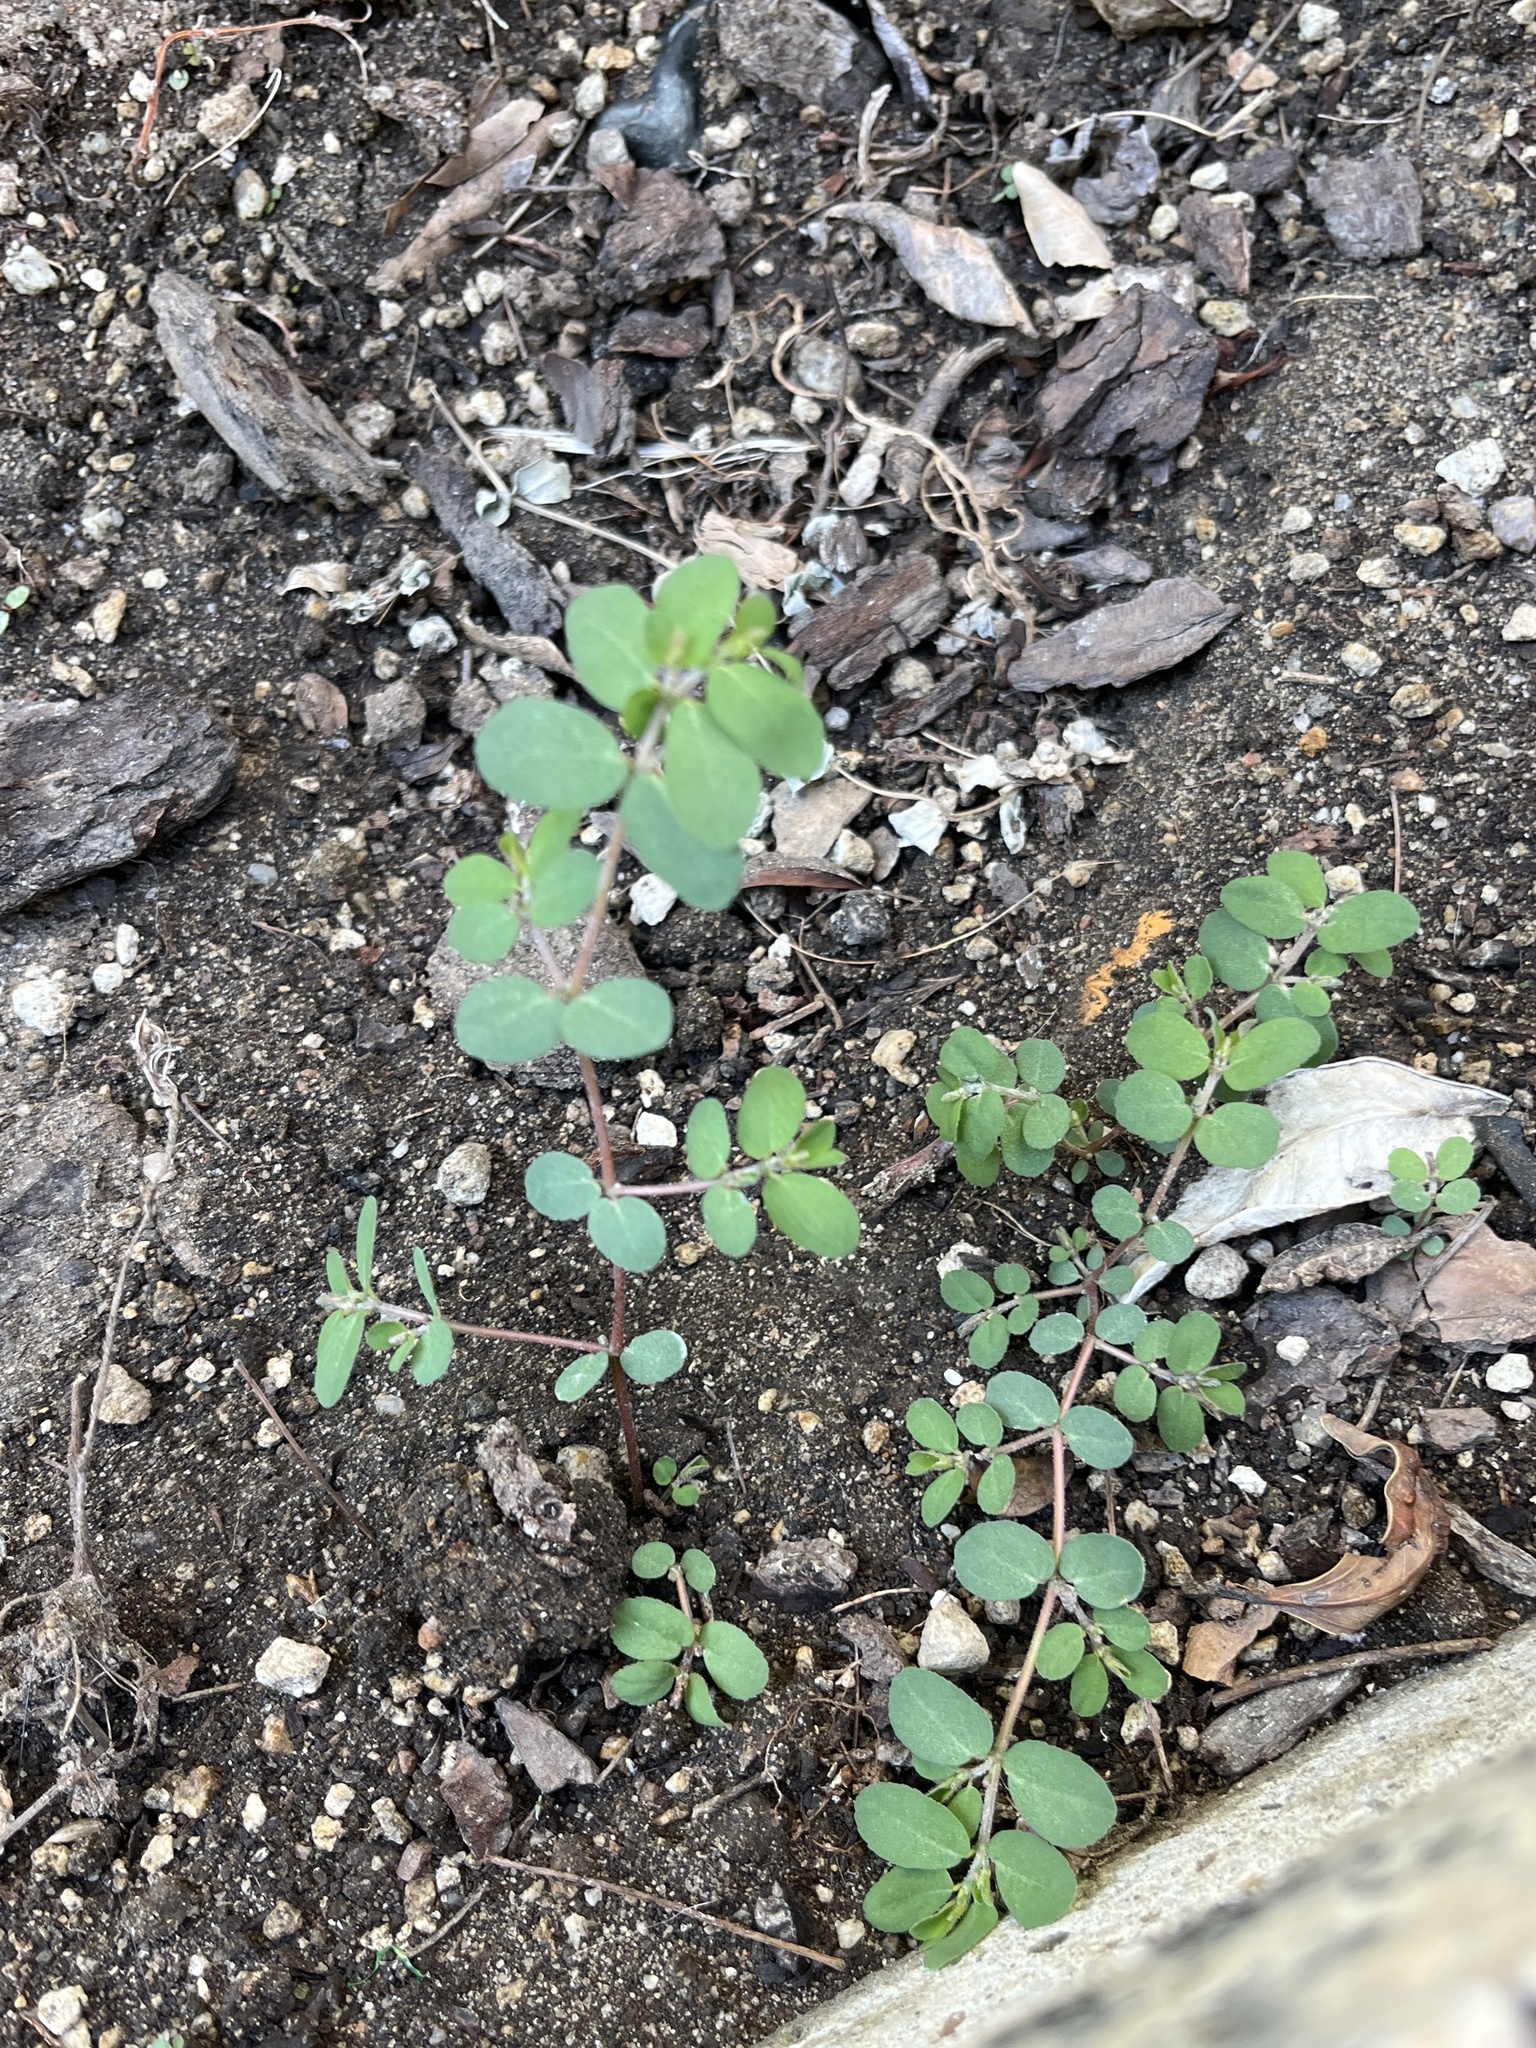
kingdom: Plantae
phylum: Tracheophyta
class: Magnoliopsida
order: Malpighiales
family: Euphorbiaceae
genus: Euphorbia
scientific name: Euphorbia prostrata
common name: Prostrate sandmat
